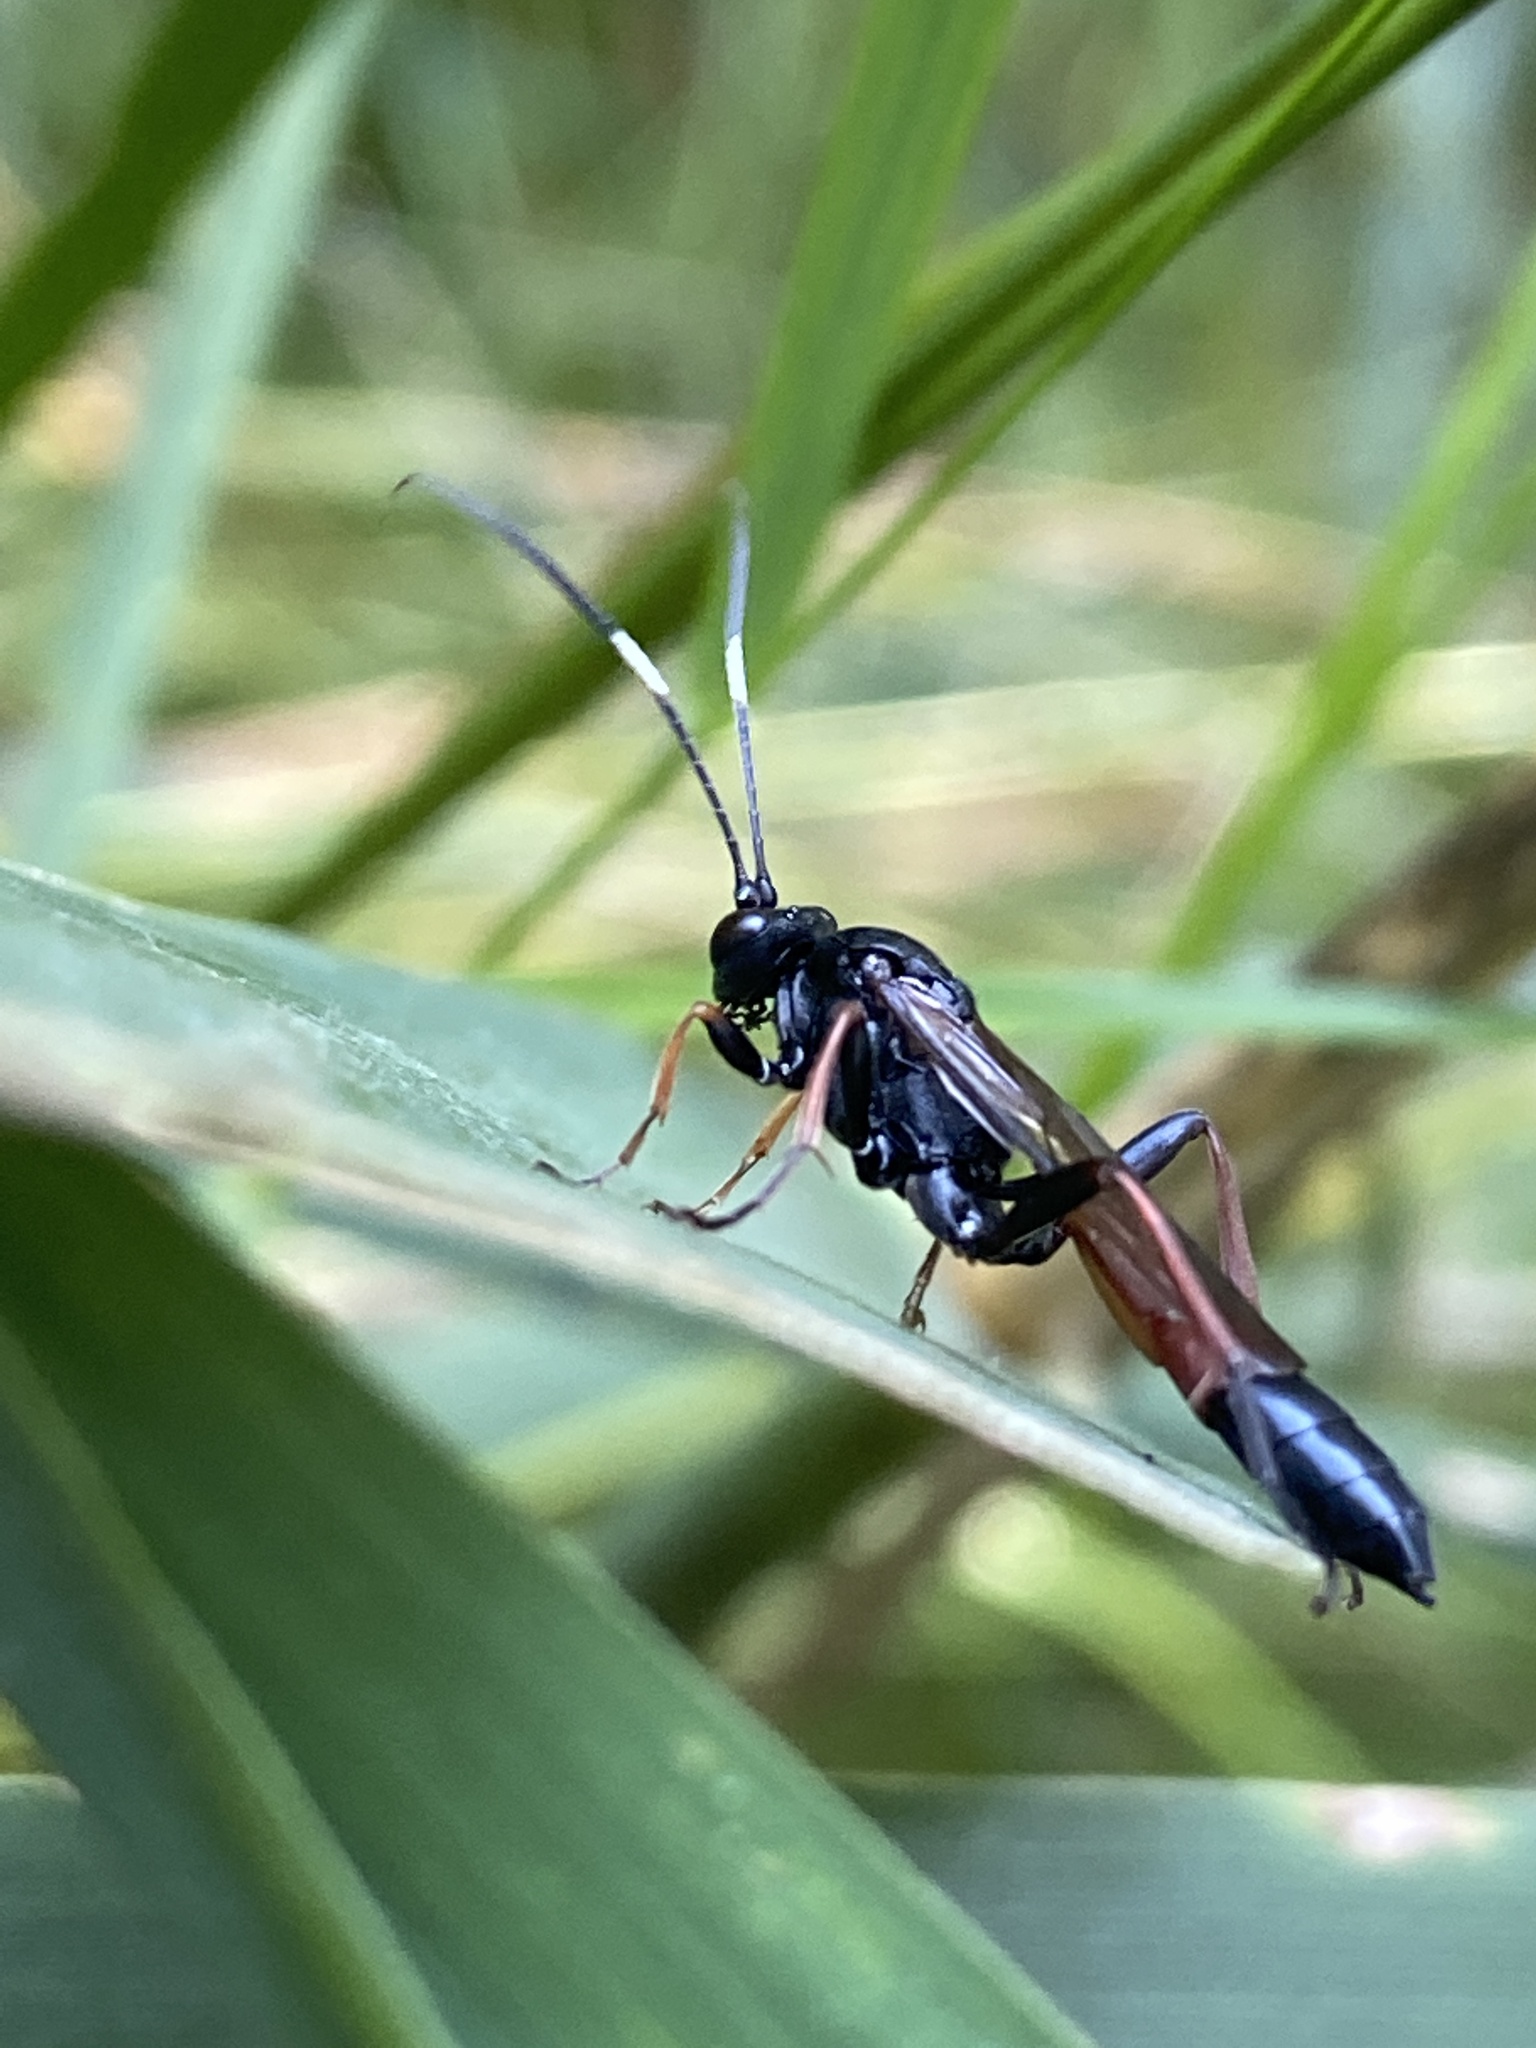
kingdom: Animalia
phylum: Arthropoda
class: Insecta
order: Hymenoptera
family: Ichneumonidae
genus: Stenichneumon
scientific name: Stenichneumon culpator
